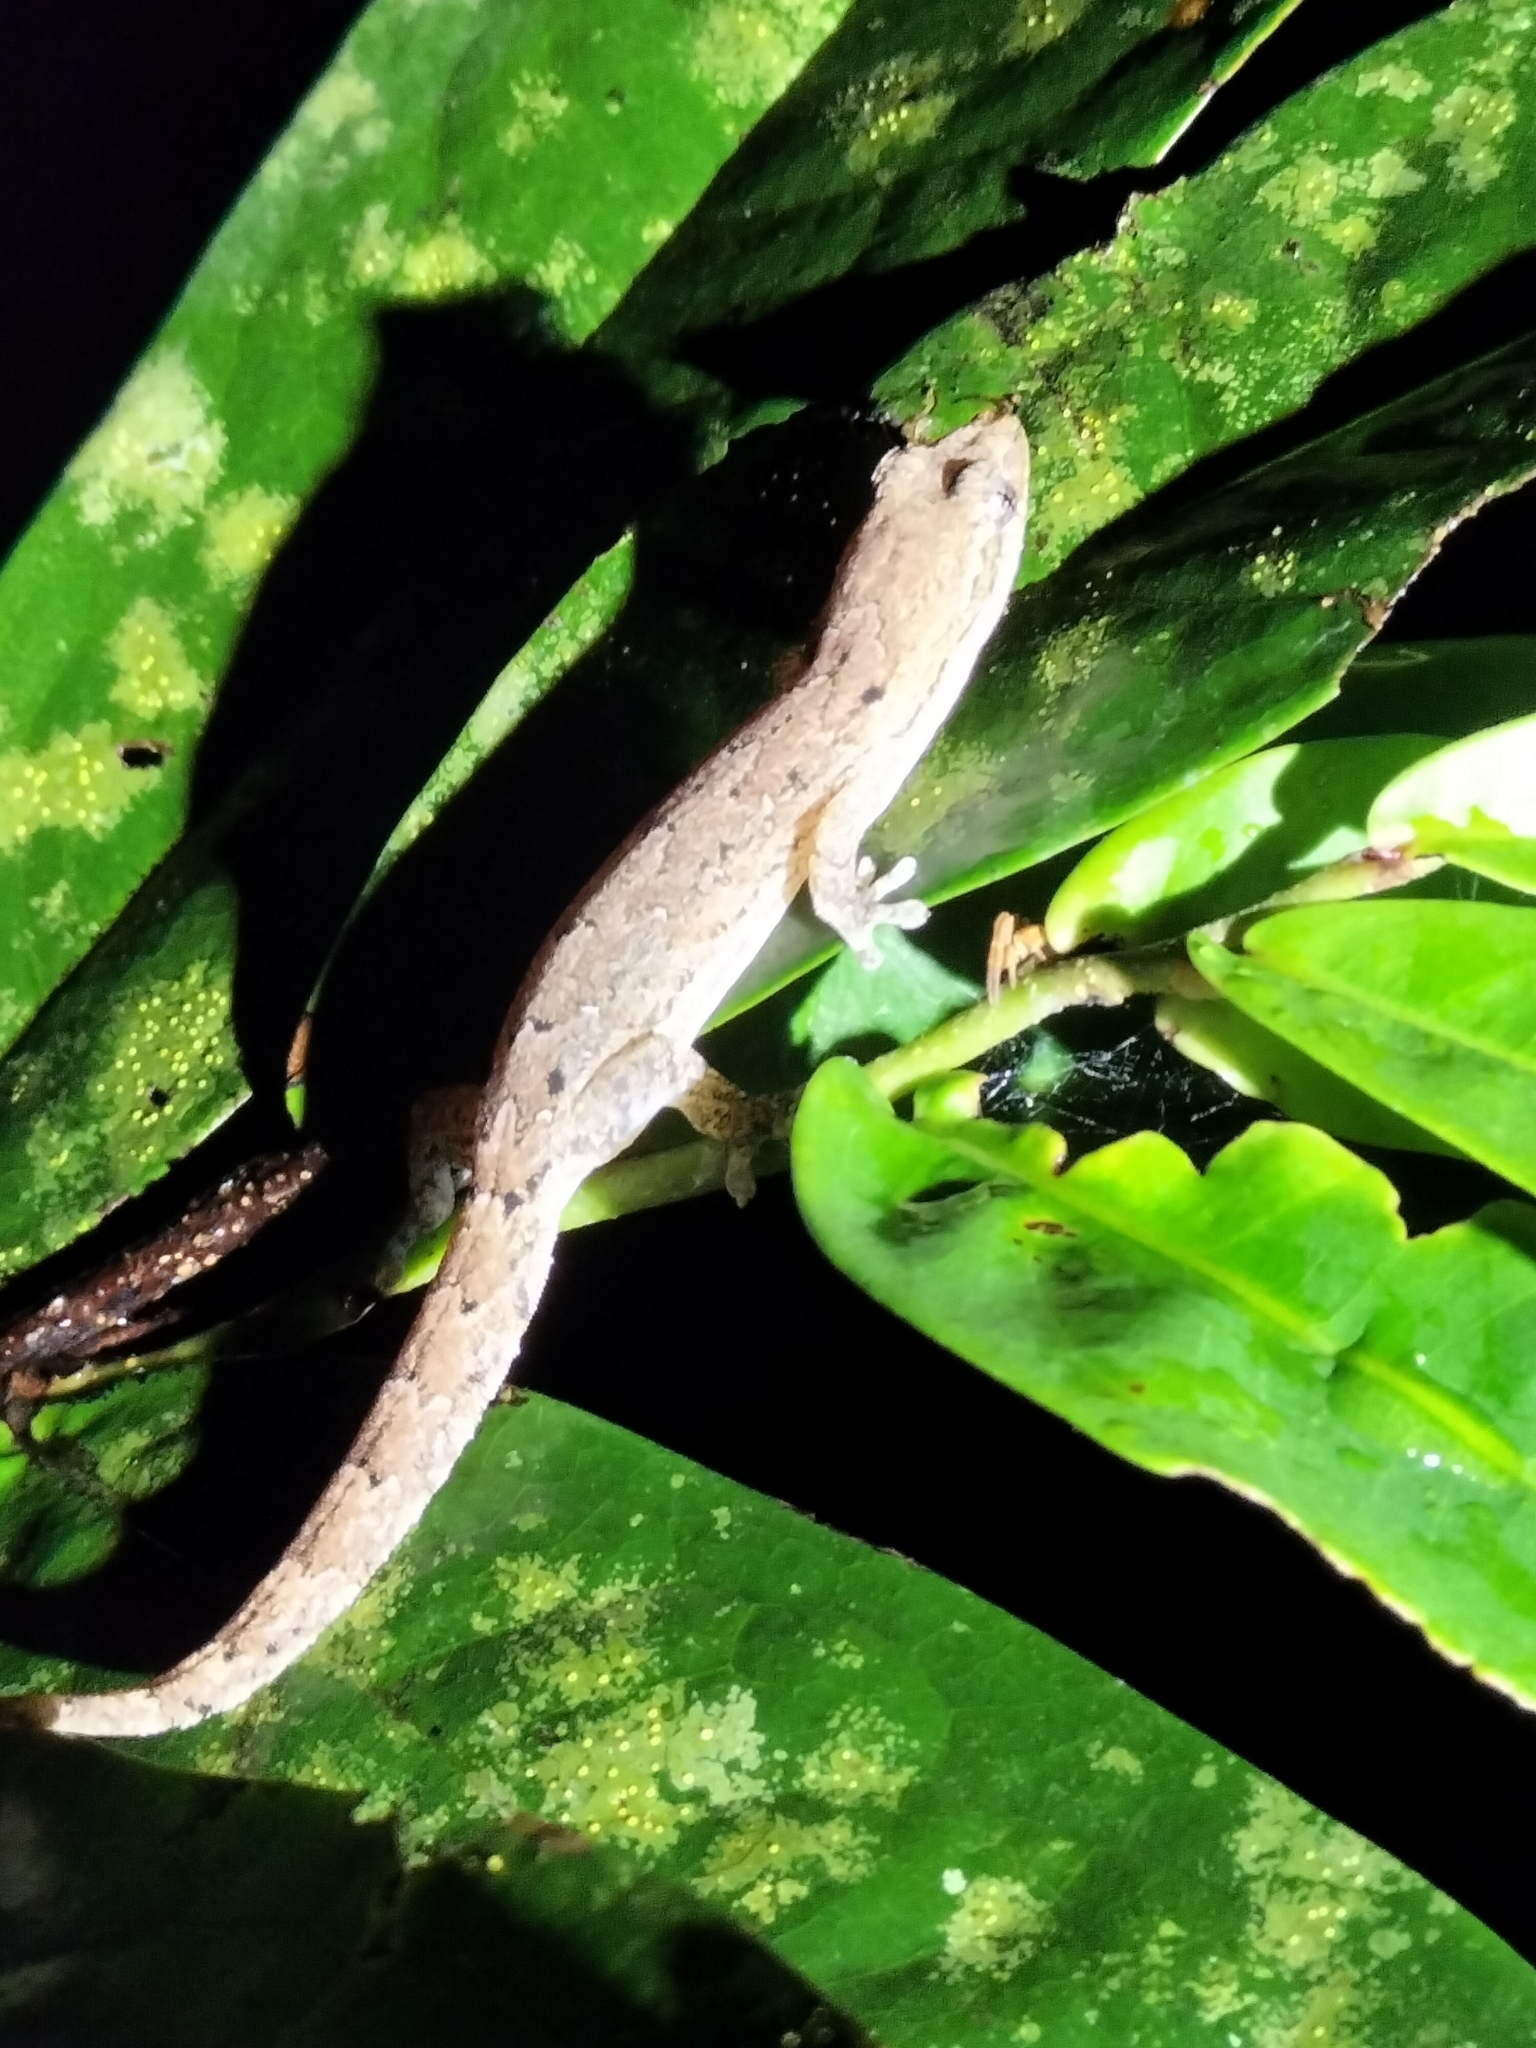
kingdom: Animalia
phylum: Chordata
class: Squamata
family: Gekkonidae
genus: Lepidodactylus
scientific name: Lepidodactylus lugubris
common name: Mourning gecko
